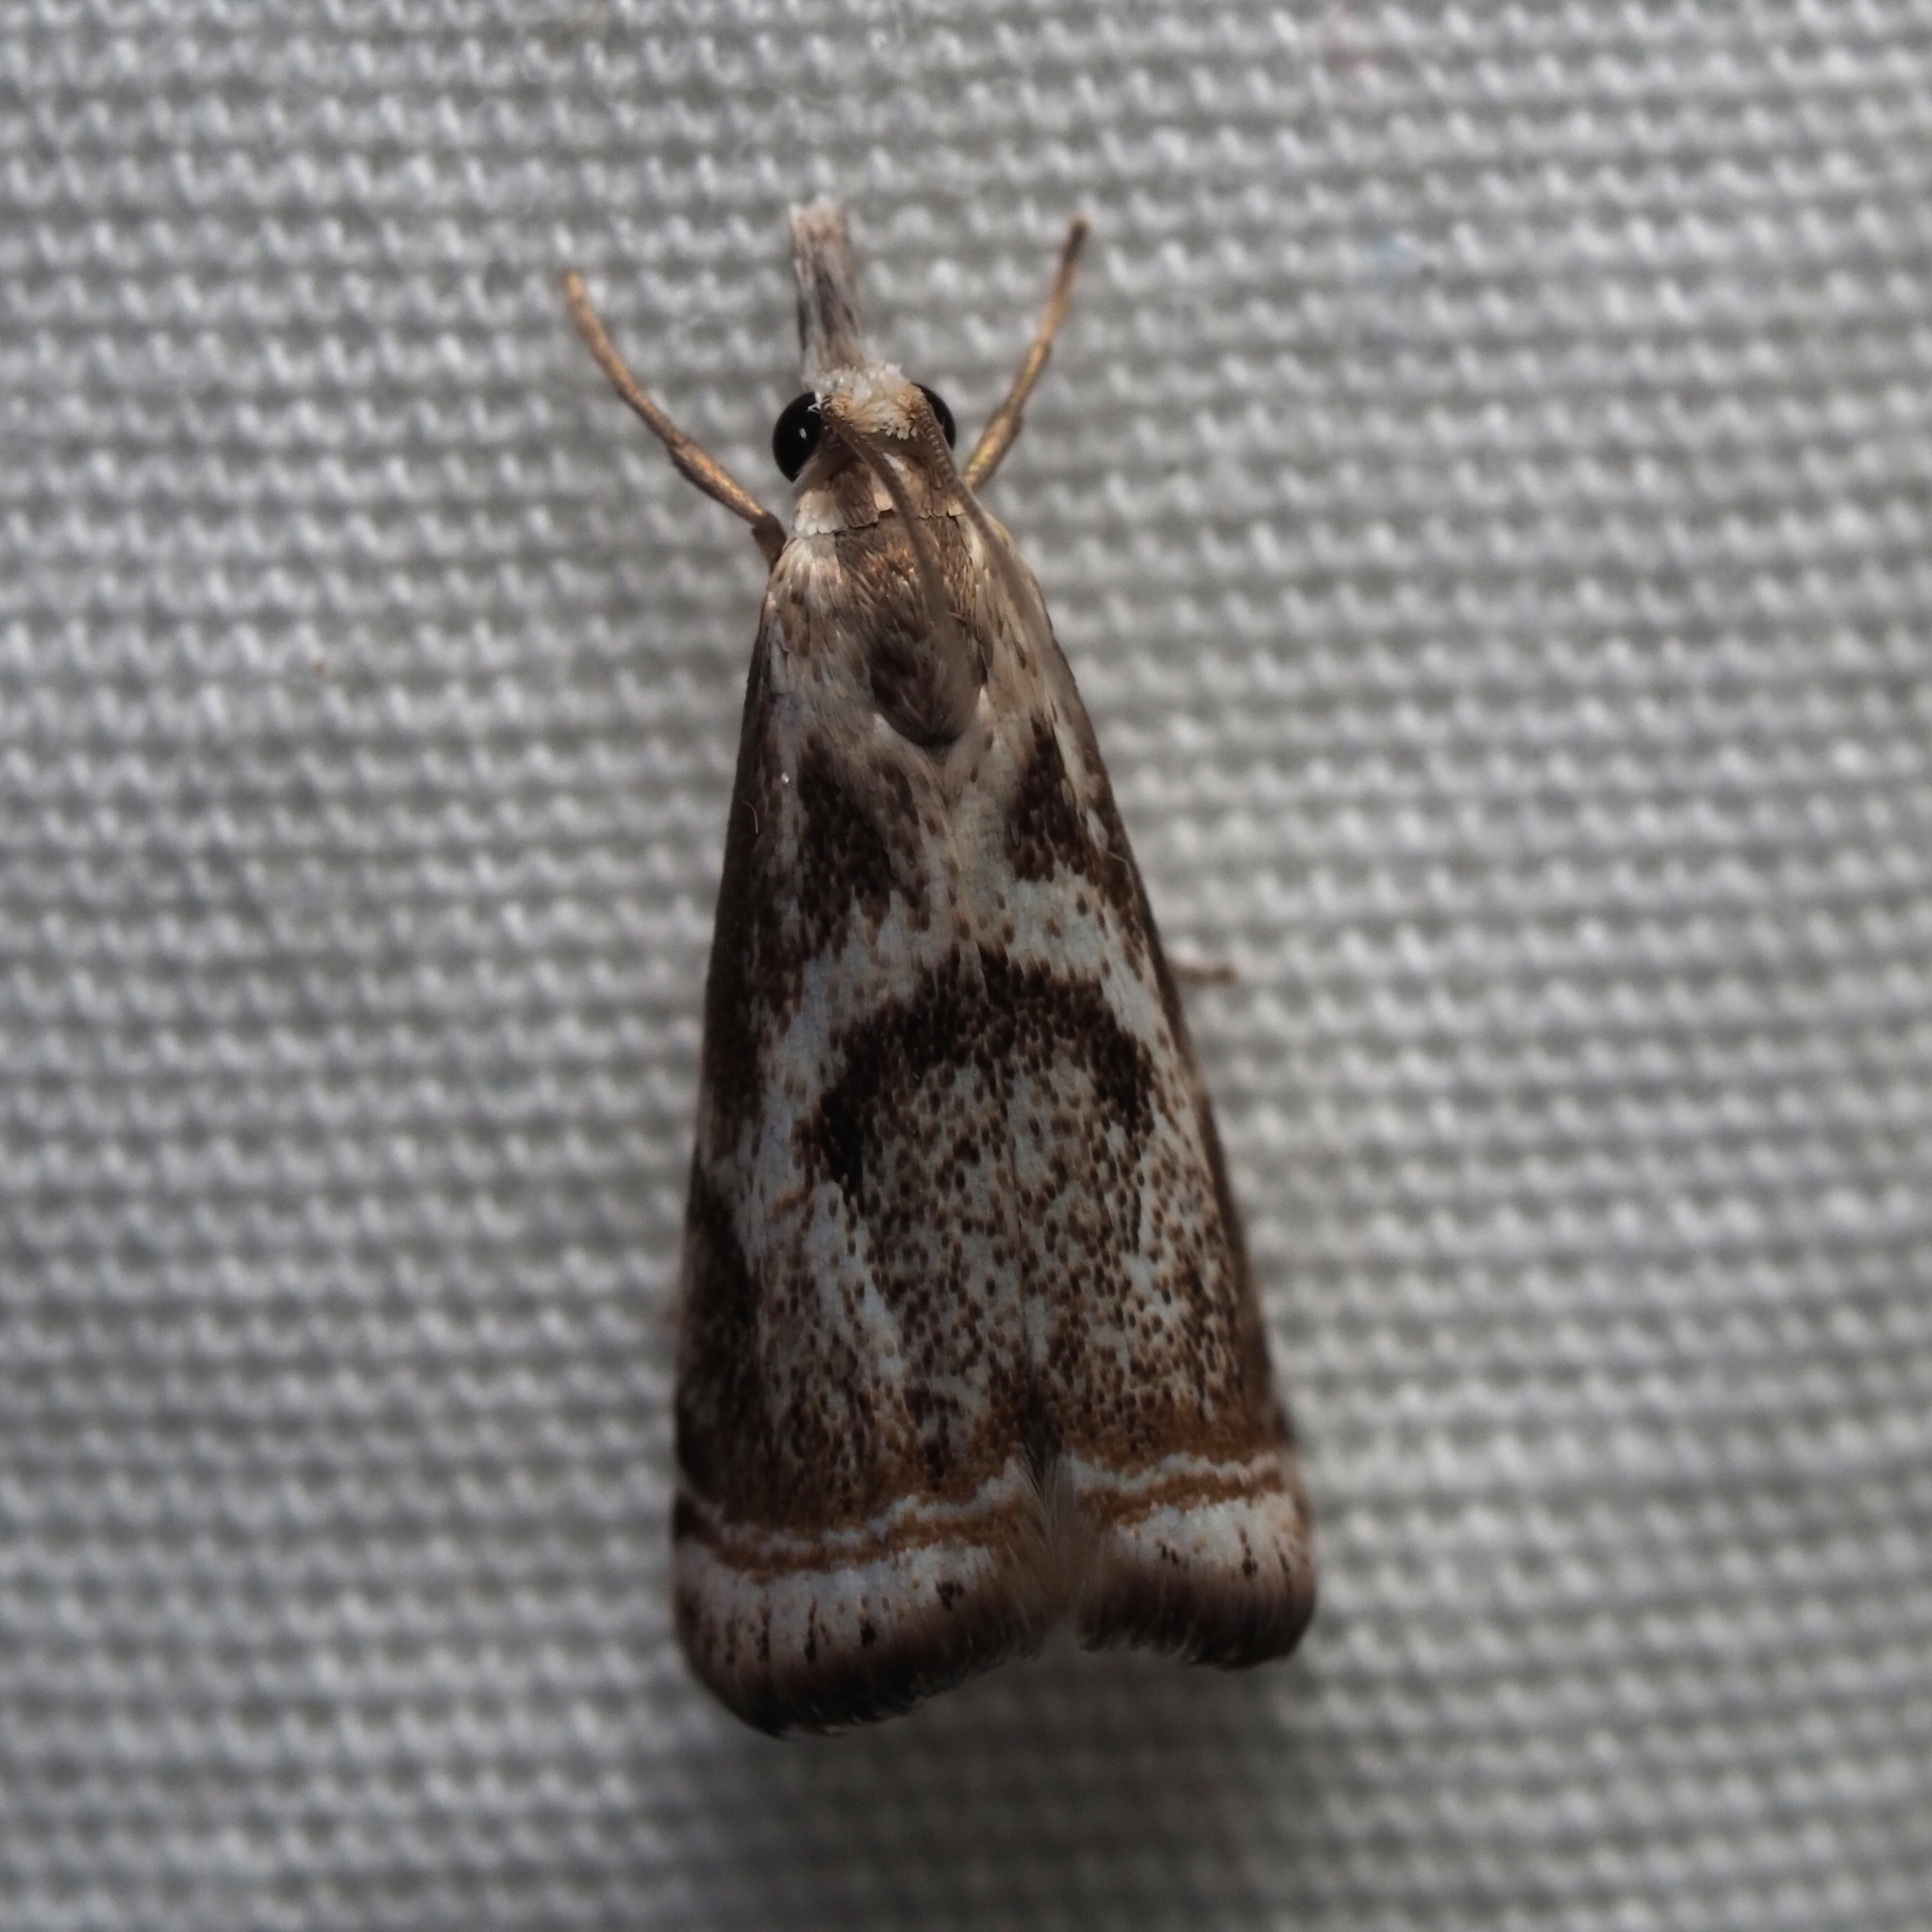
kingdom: Animalia
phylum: Arthropoda
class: Insecta
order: Lepidoptera
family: Crambidae
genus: Microcrambus
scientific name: Microcrambus elegans
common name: Elegant grass-veneer
